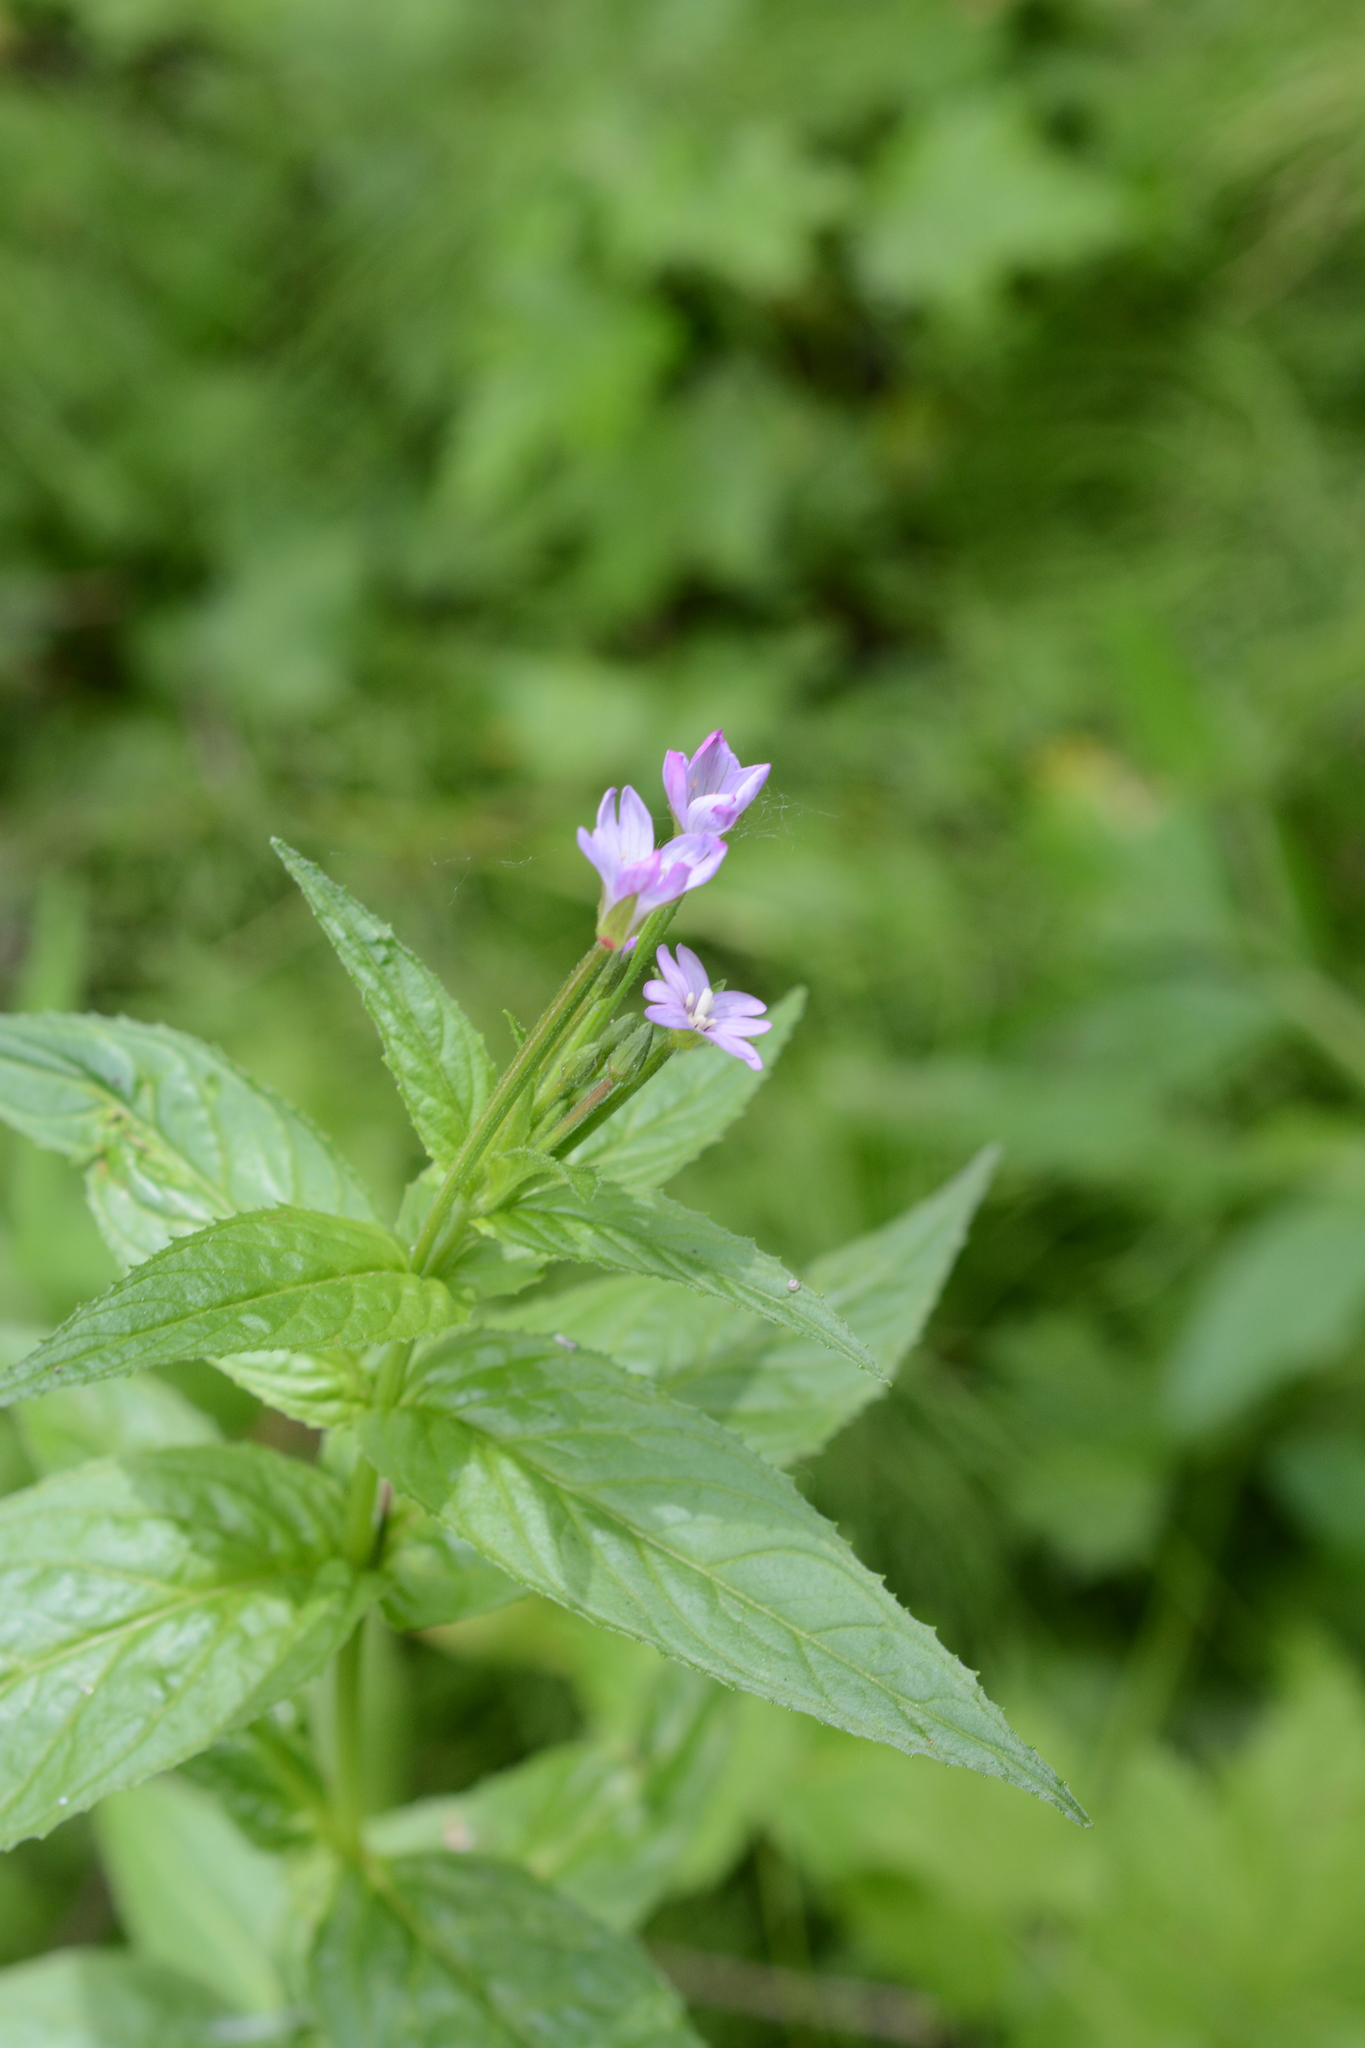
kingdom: Plantae
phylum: Tracheophyta
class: Magnoliopsida
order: Myrtales
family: Onagraceae
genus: Epilobium
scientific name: Epilobium ciliatum
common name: American willowherb
